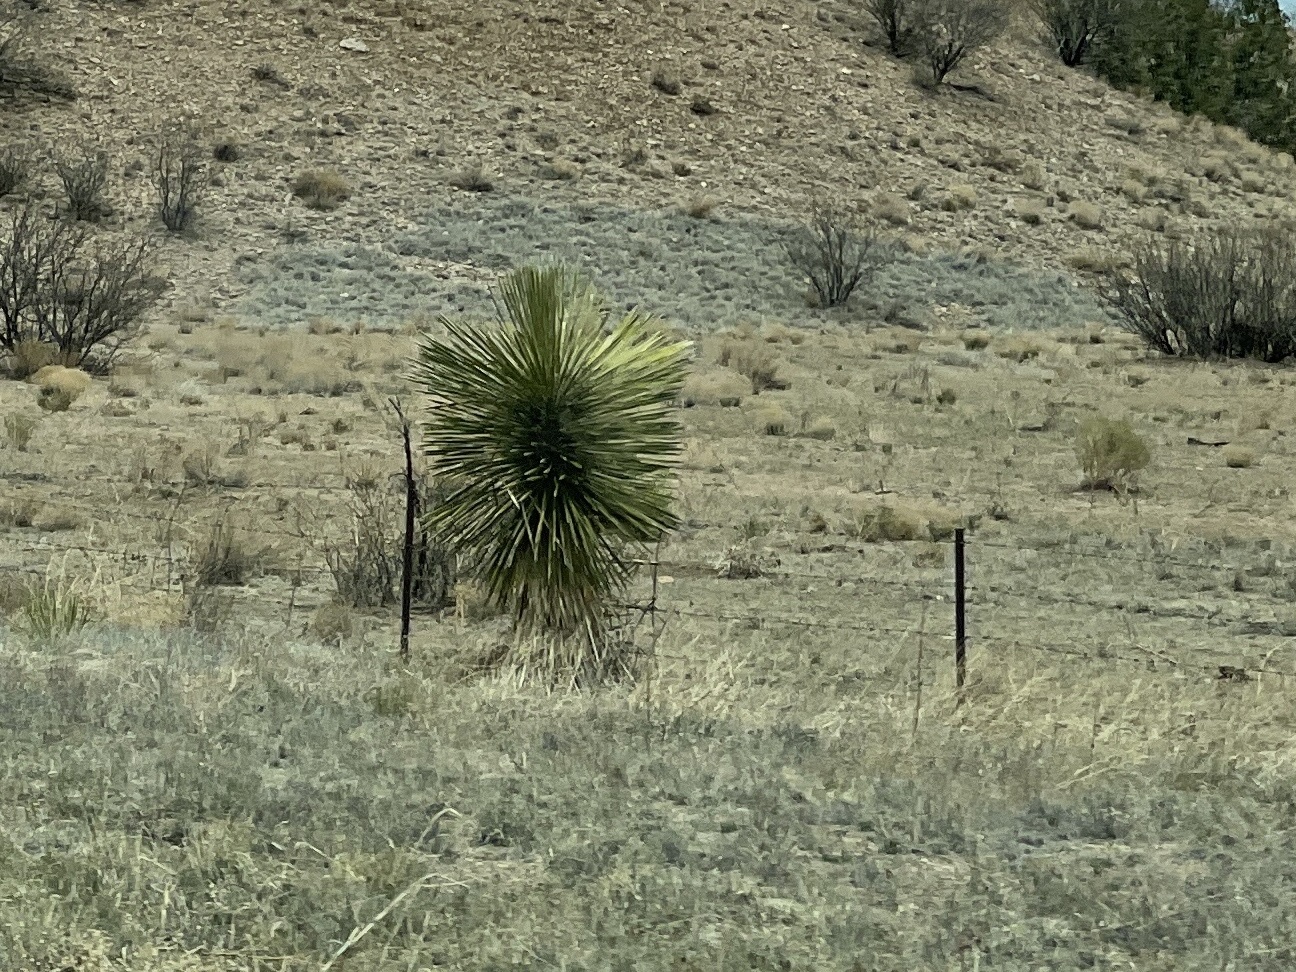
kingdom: Plantae
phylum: Tracheophyta
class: Liliopsida
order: Asparagales
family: Asparagaceae
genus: Yucca
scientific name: Yucca elata
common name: Palmella
